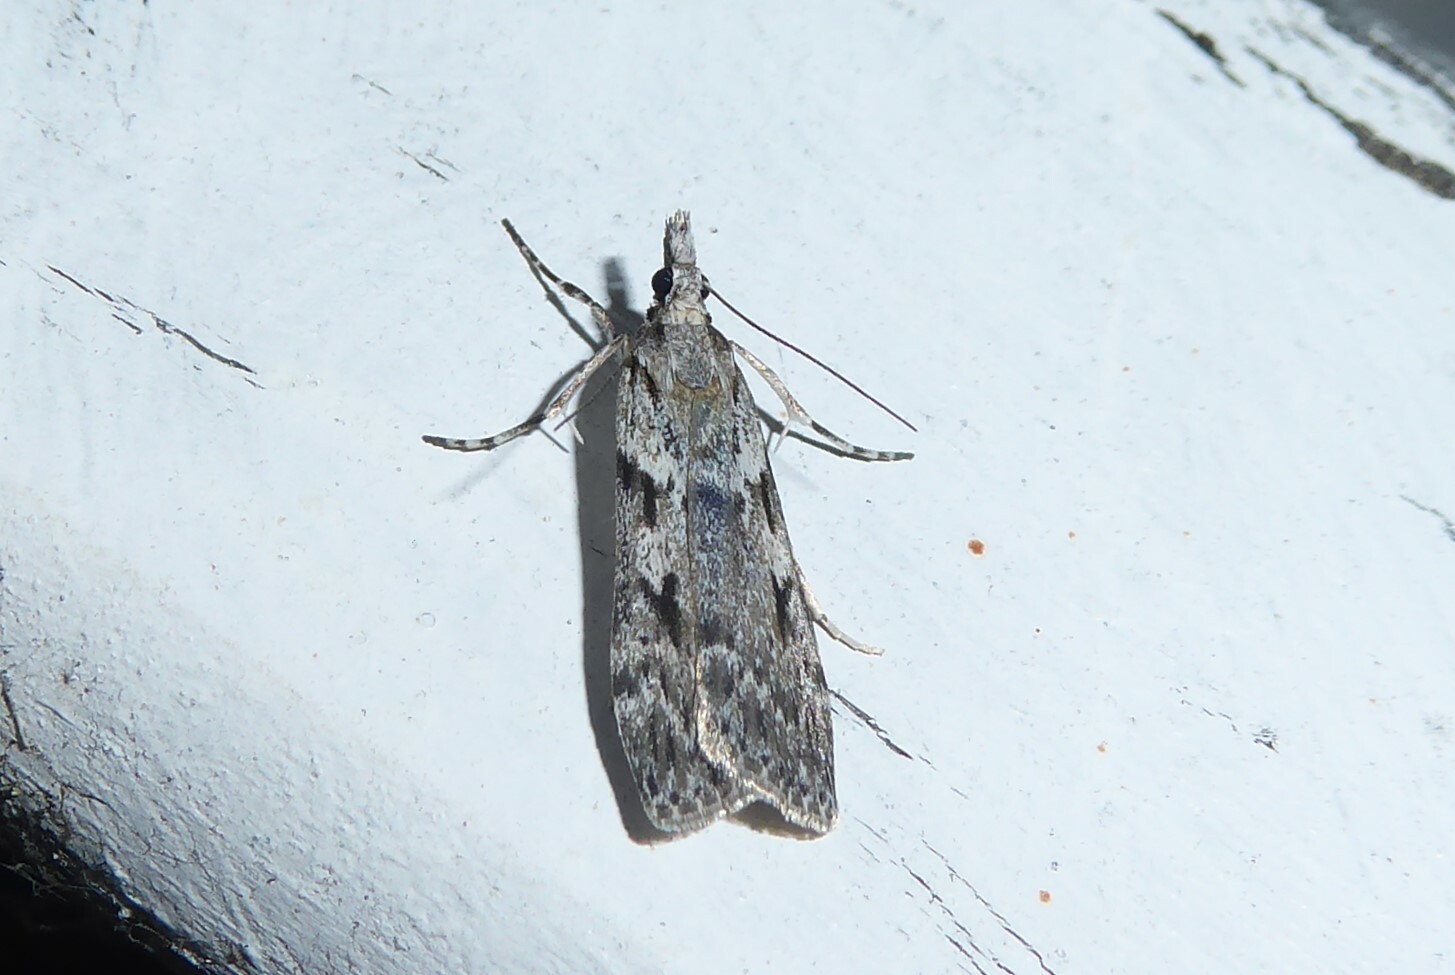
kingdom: Animalia
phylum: Arthropoda
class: Insecta
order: Lepidoptera
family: Crambidae
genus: Scoparia
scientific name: Scoparia halopis
